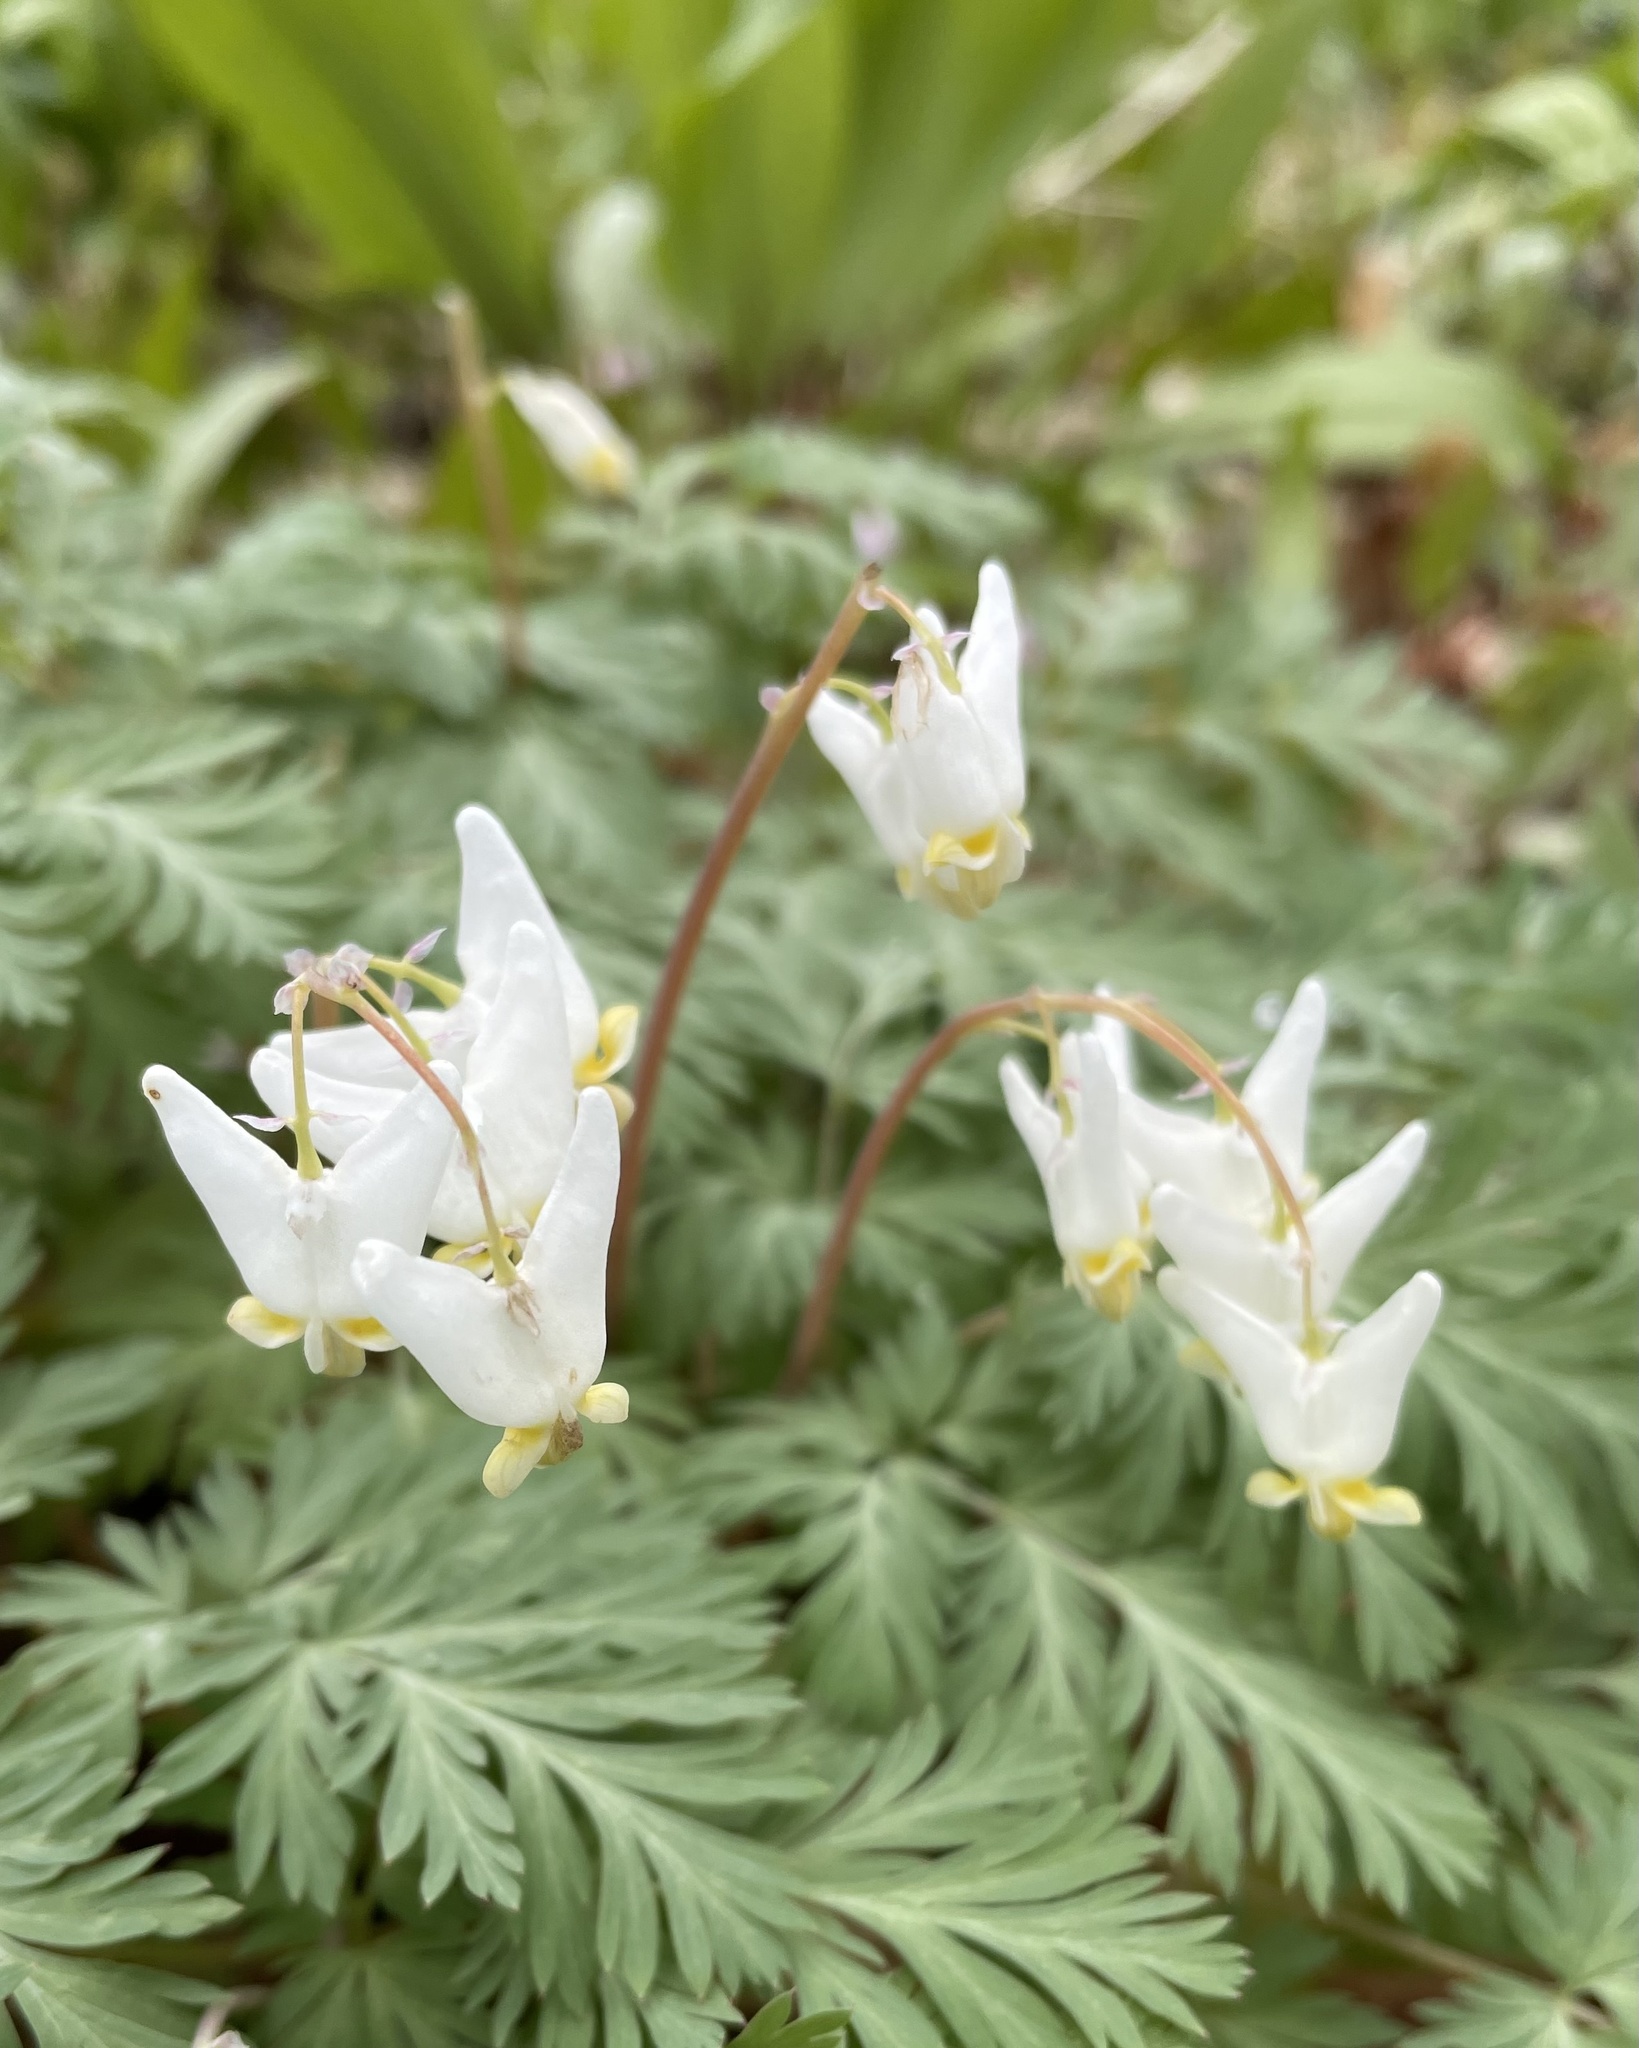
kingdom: Plantae
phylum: Tracheophyta
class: Magnoliopsida
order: Ranunculales
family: Papaveraceae
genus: Dicentra
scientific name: Dicentra cucullaria
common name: Dutchman's breeches
